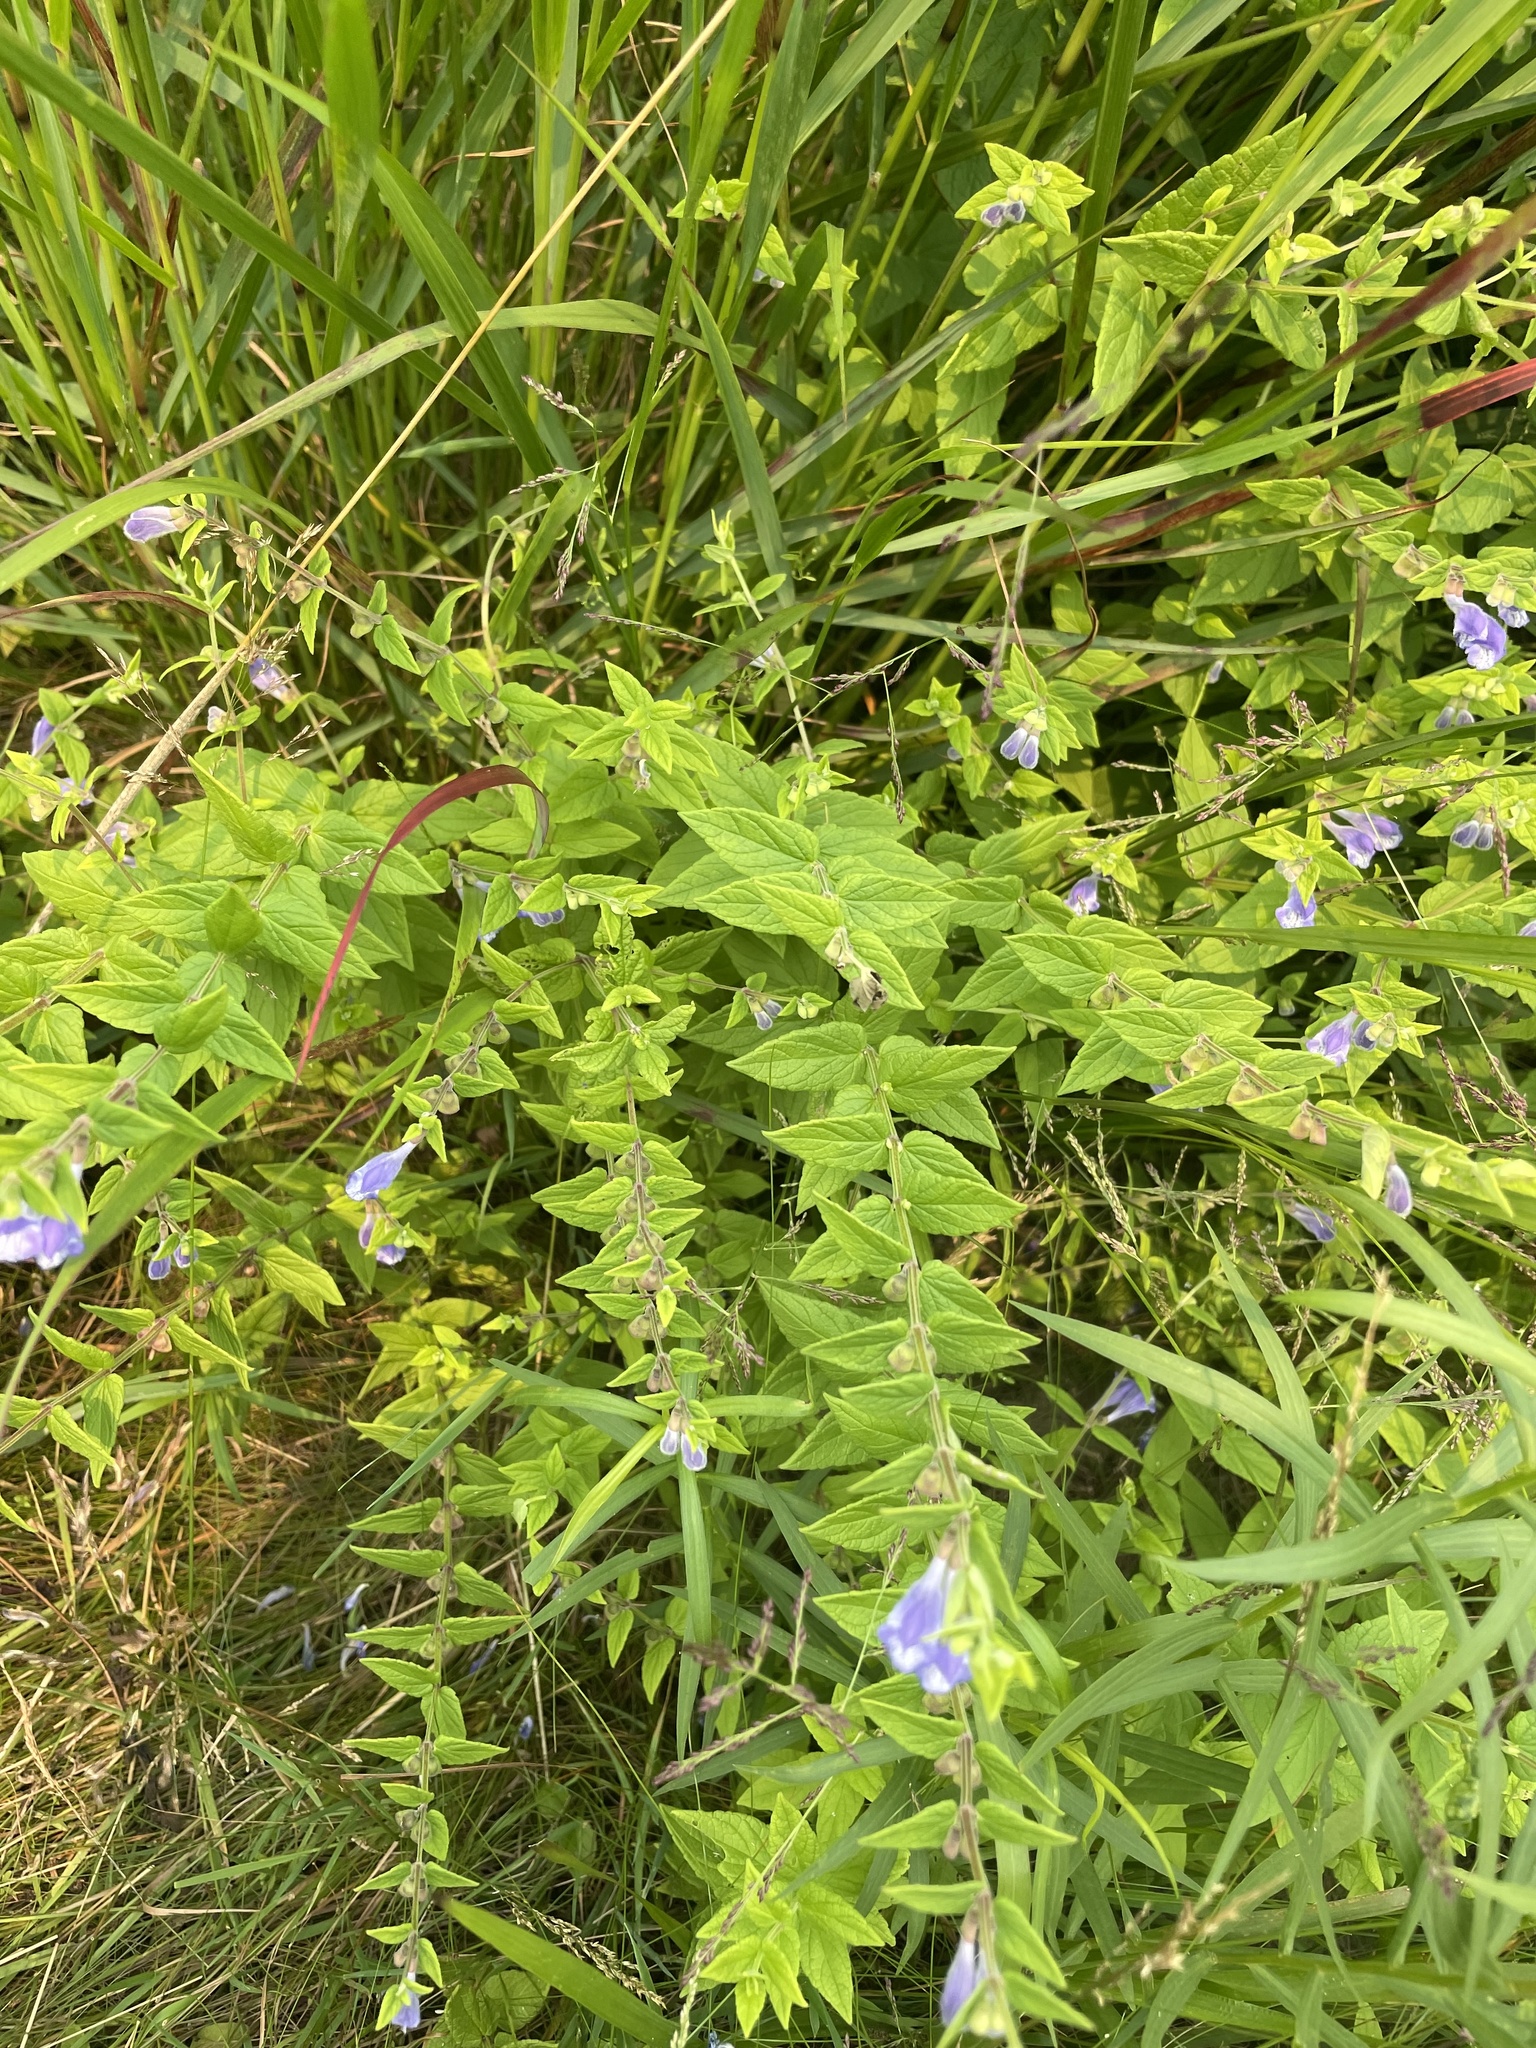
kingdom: Plantae
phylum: Tracheophyta
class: Magnoliopsida
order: Lamiales
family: Lamiaceae
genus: Scutellaria
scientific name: Scutellaria galericulata
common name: Skullcap
